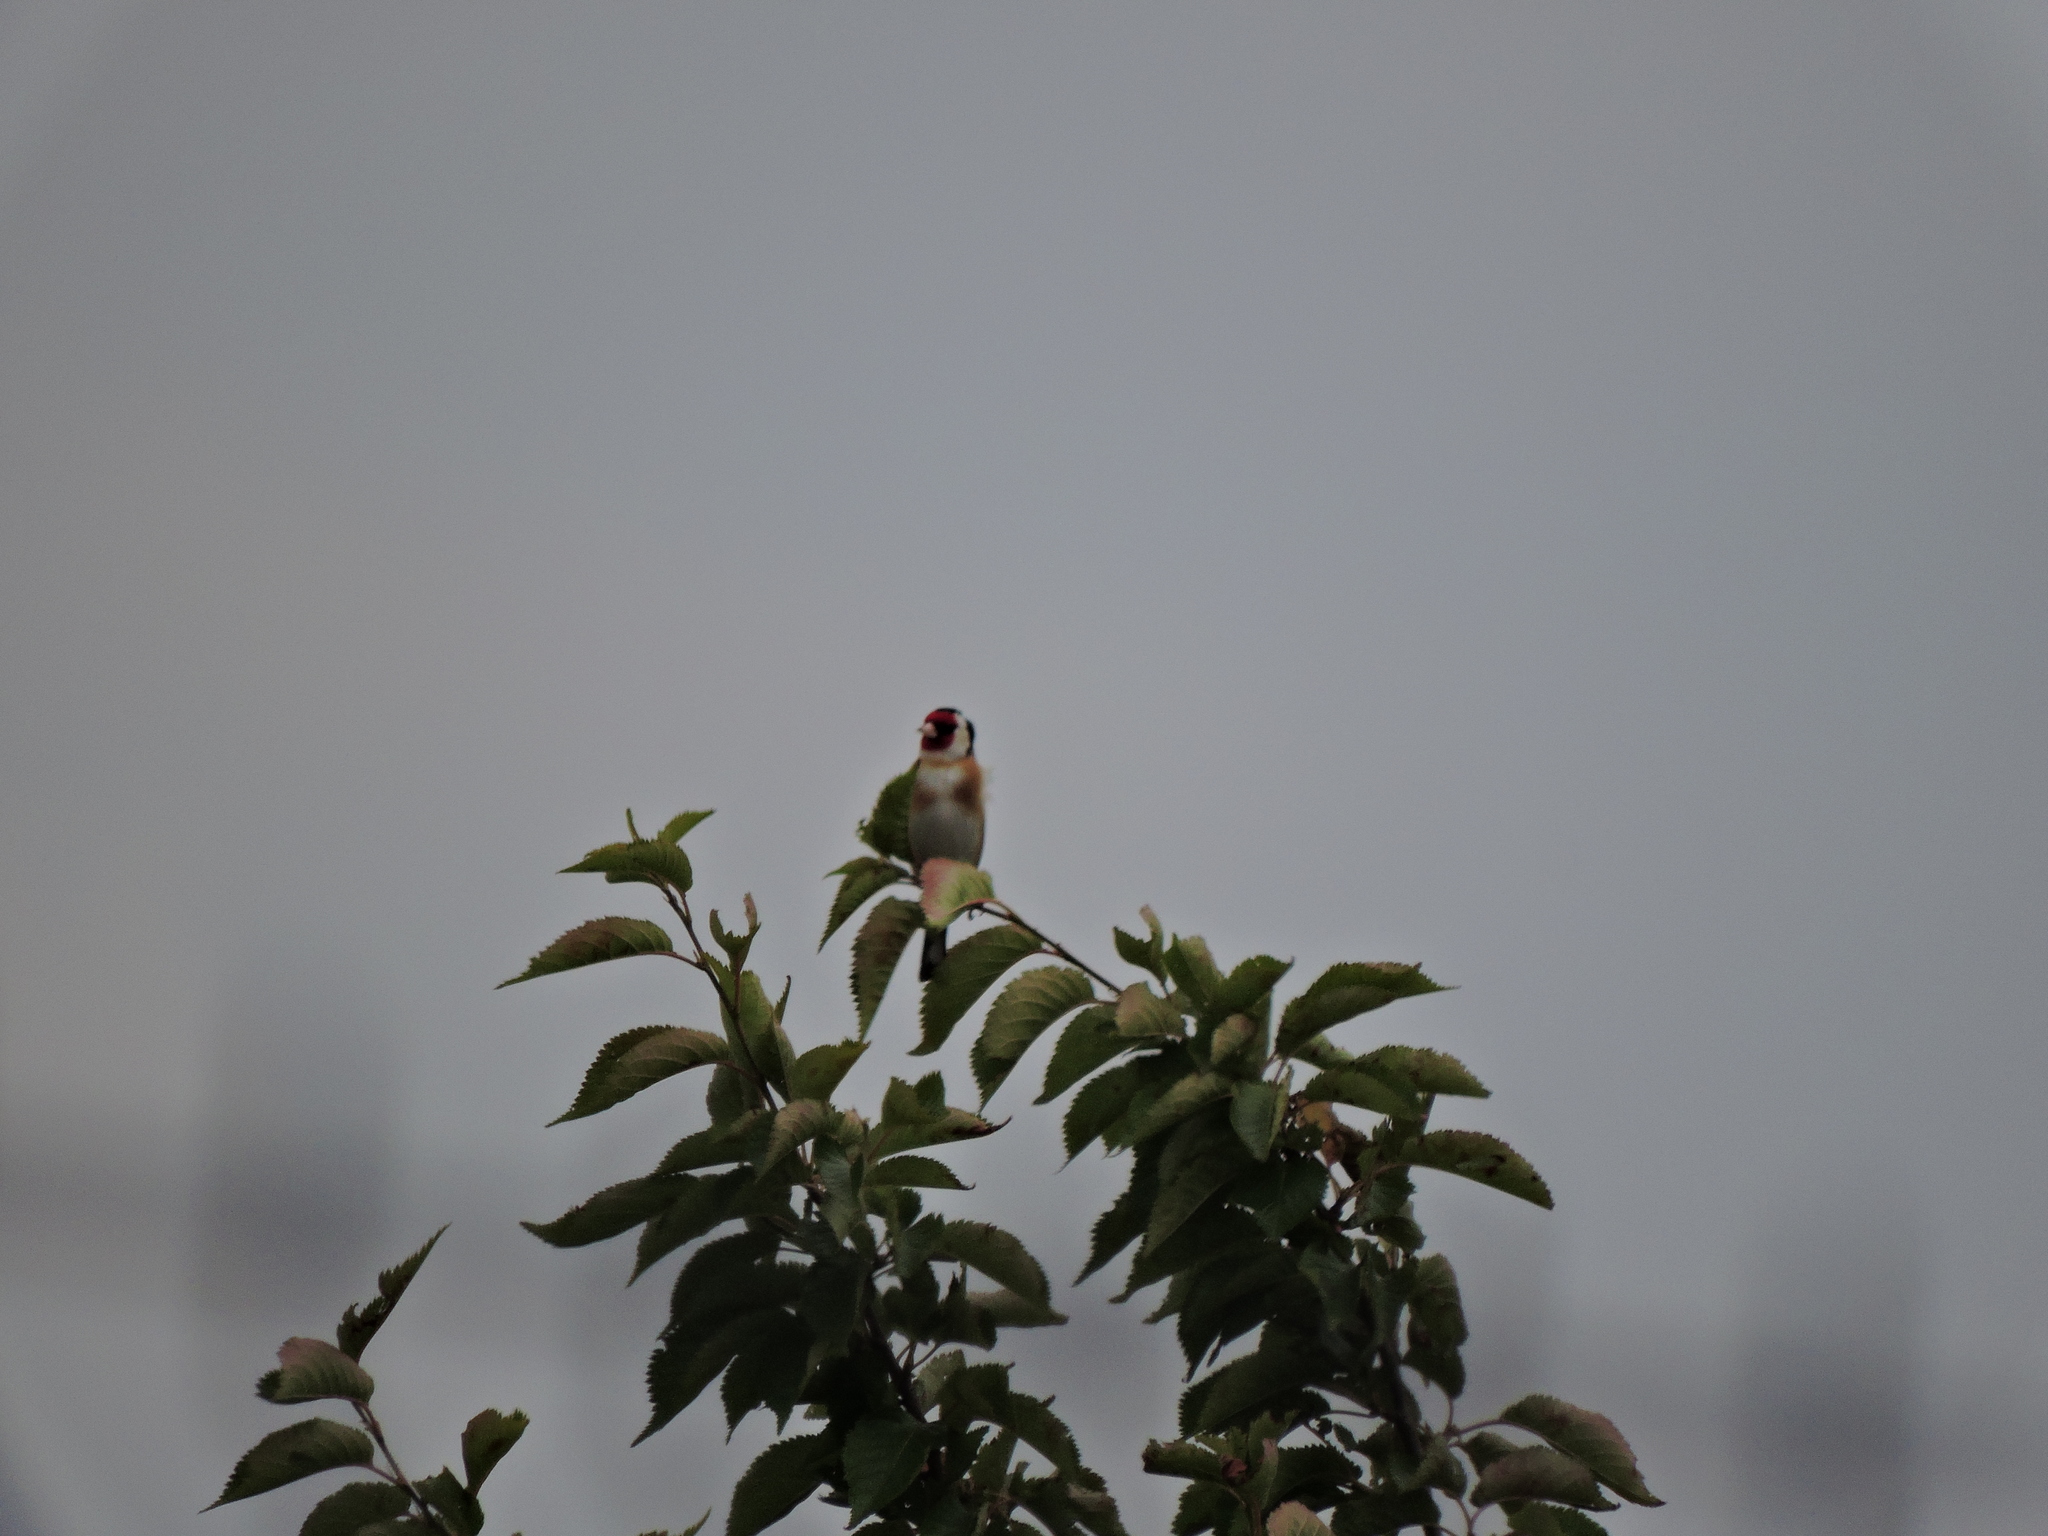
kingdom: Animalia
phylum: Chordata
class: Aves
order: Passeriformes
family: Fringillidae
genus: Carduelis
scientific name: Carduelis carduelis
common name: European goldfinch
